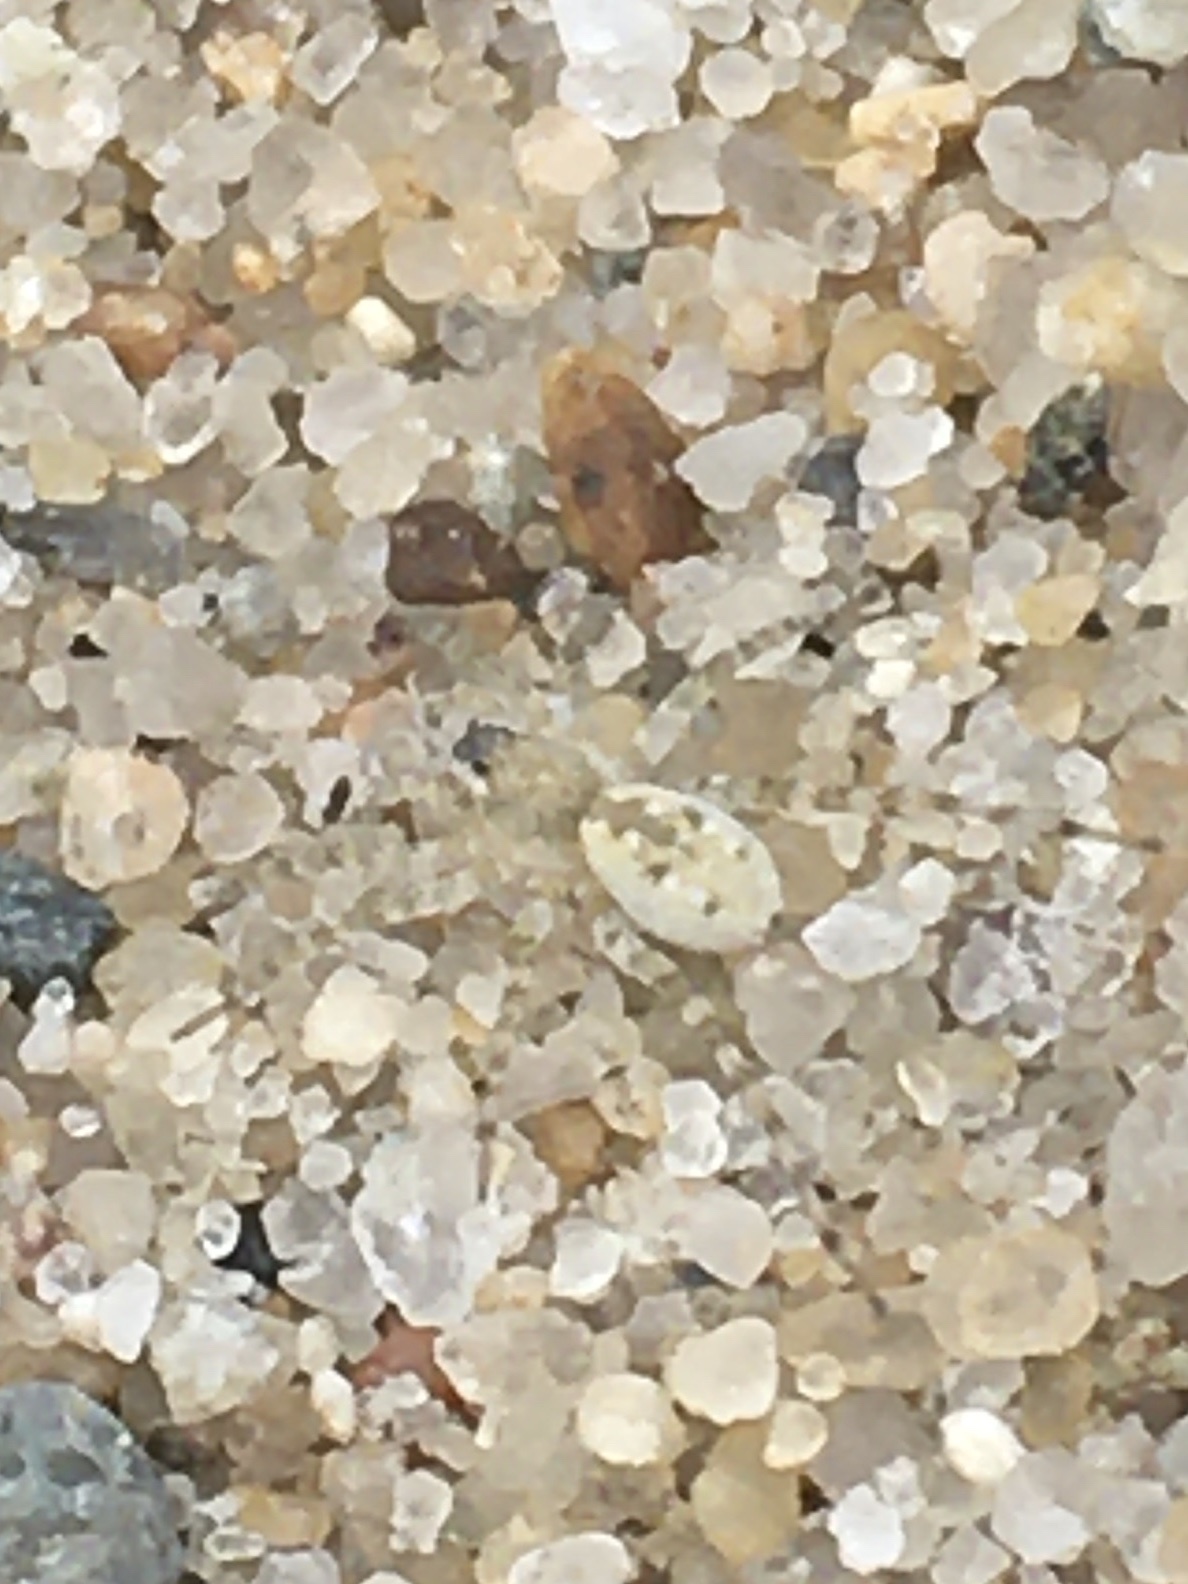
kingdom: Animalia
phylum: Arthropoda
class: Arachnida
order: Araneae
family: Lycosidae
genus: Arctosa
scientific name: Arctosa littoralis
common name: Wolf spiders
